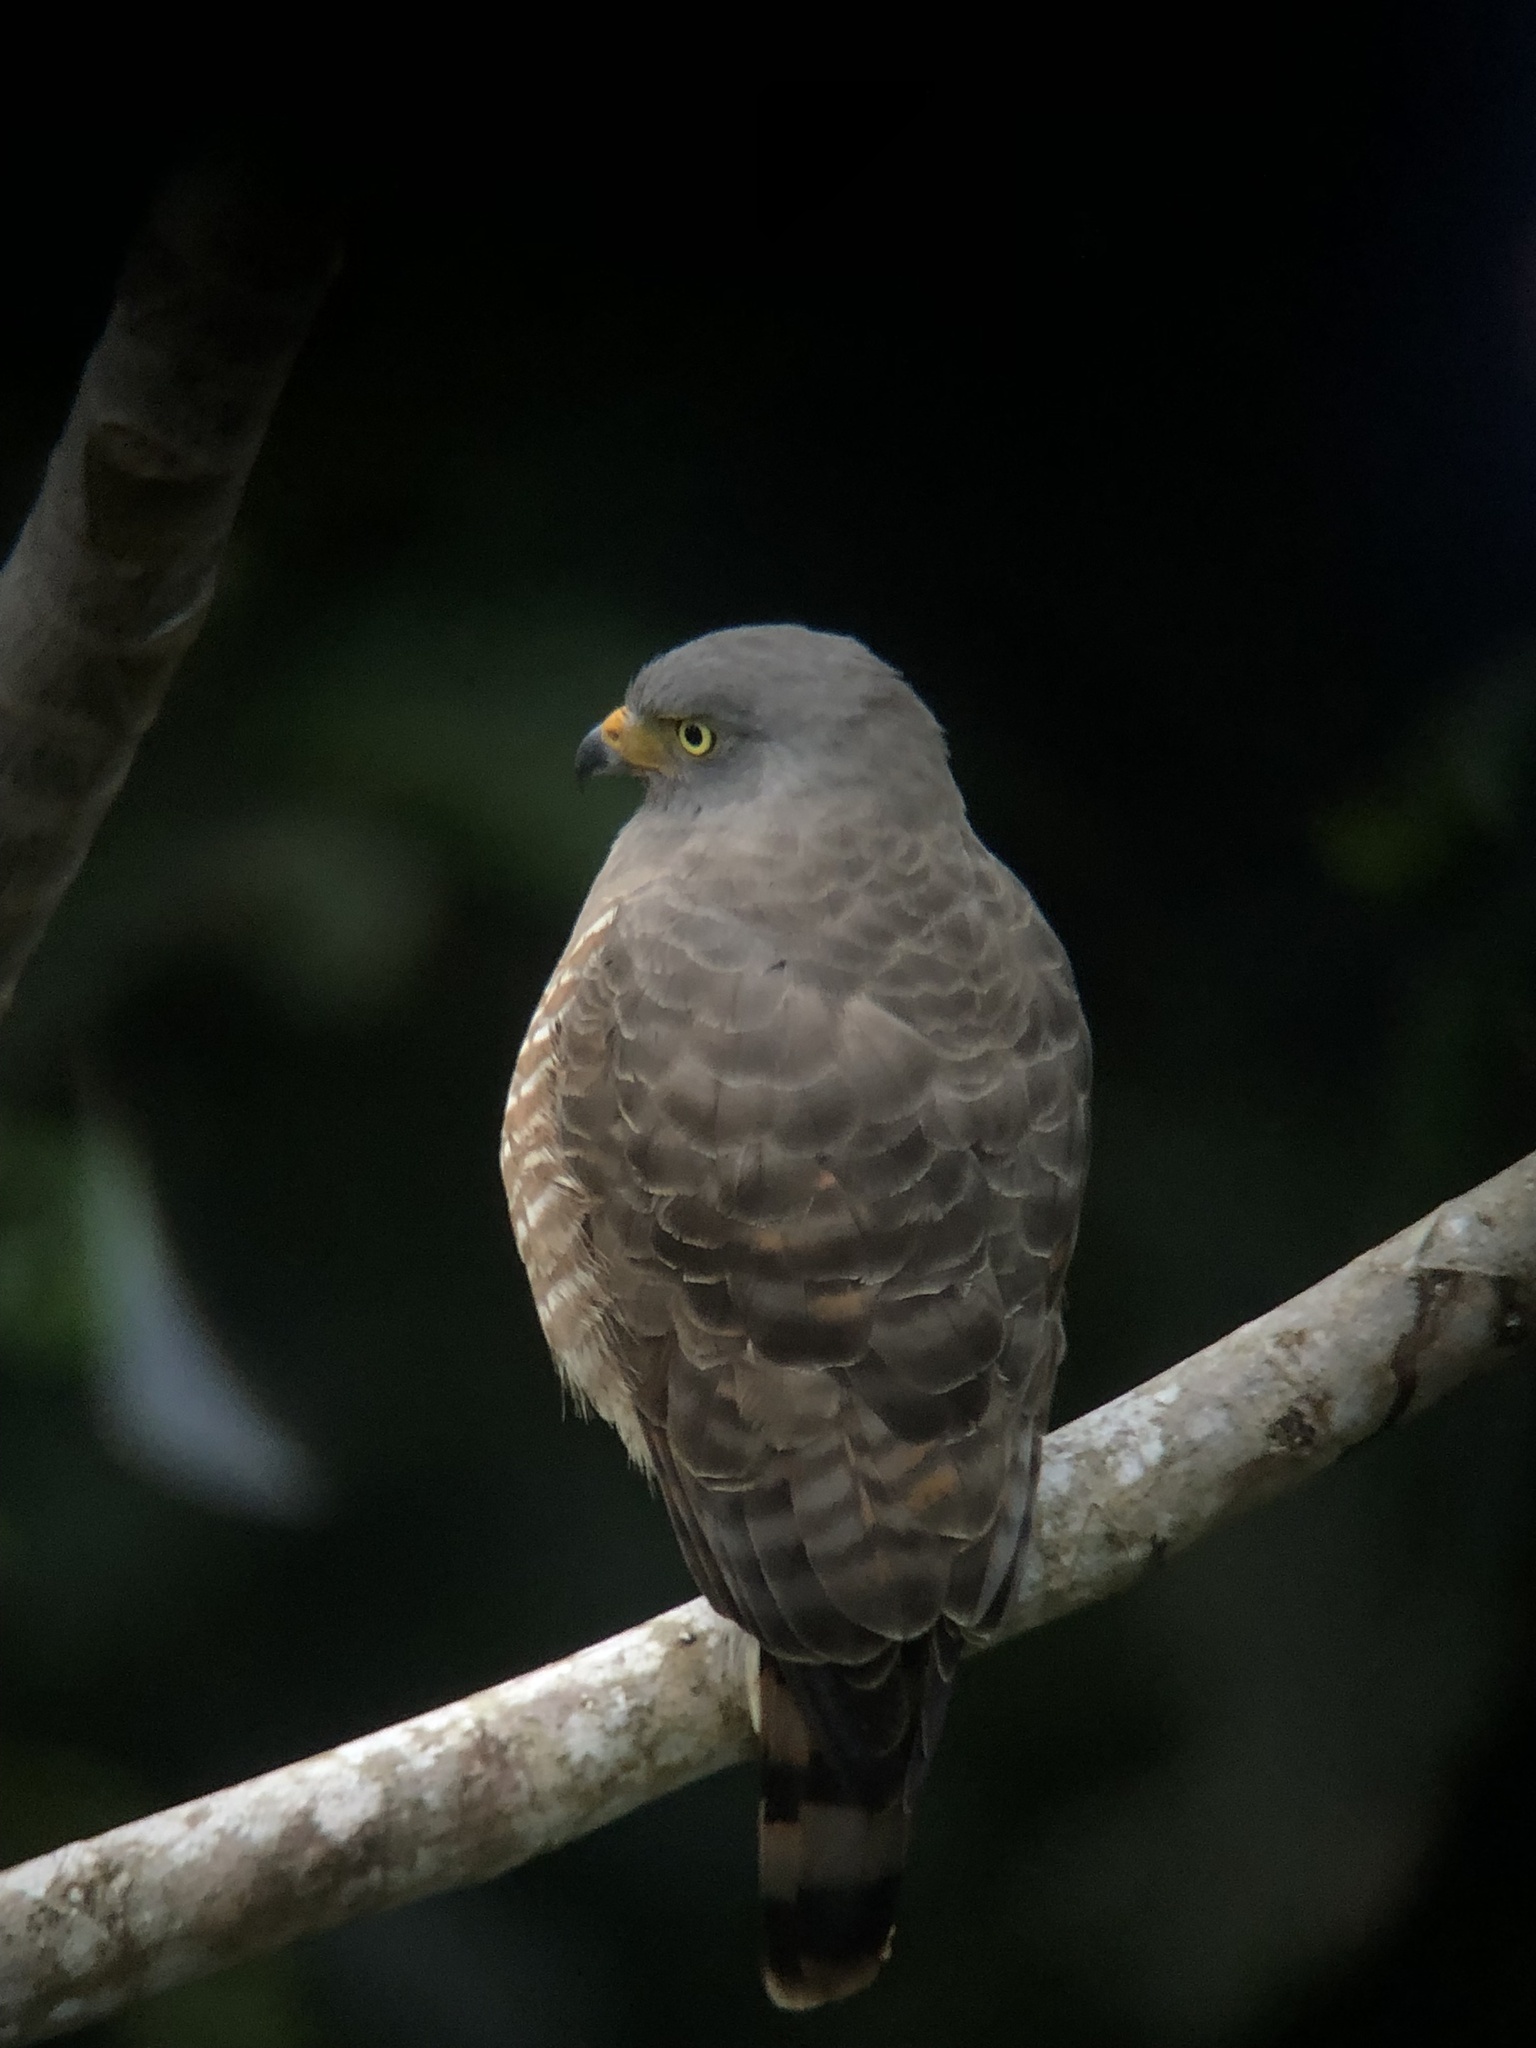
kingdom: Animalia
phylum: Chordata
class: Aves
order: Accipitriformes
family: Accipitridae
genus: Rupornis
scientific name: Rupornis magnirostris
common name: Roadside hawk
